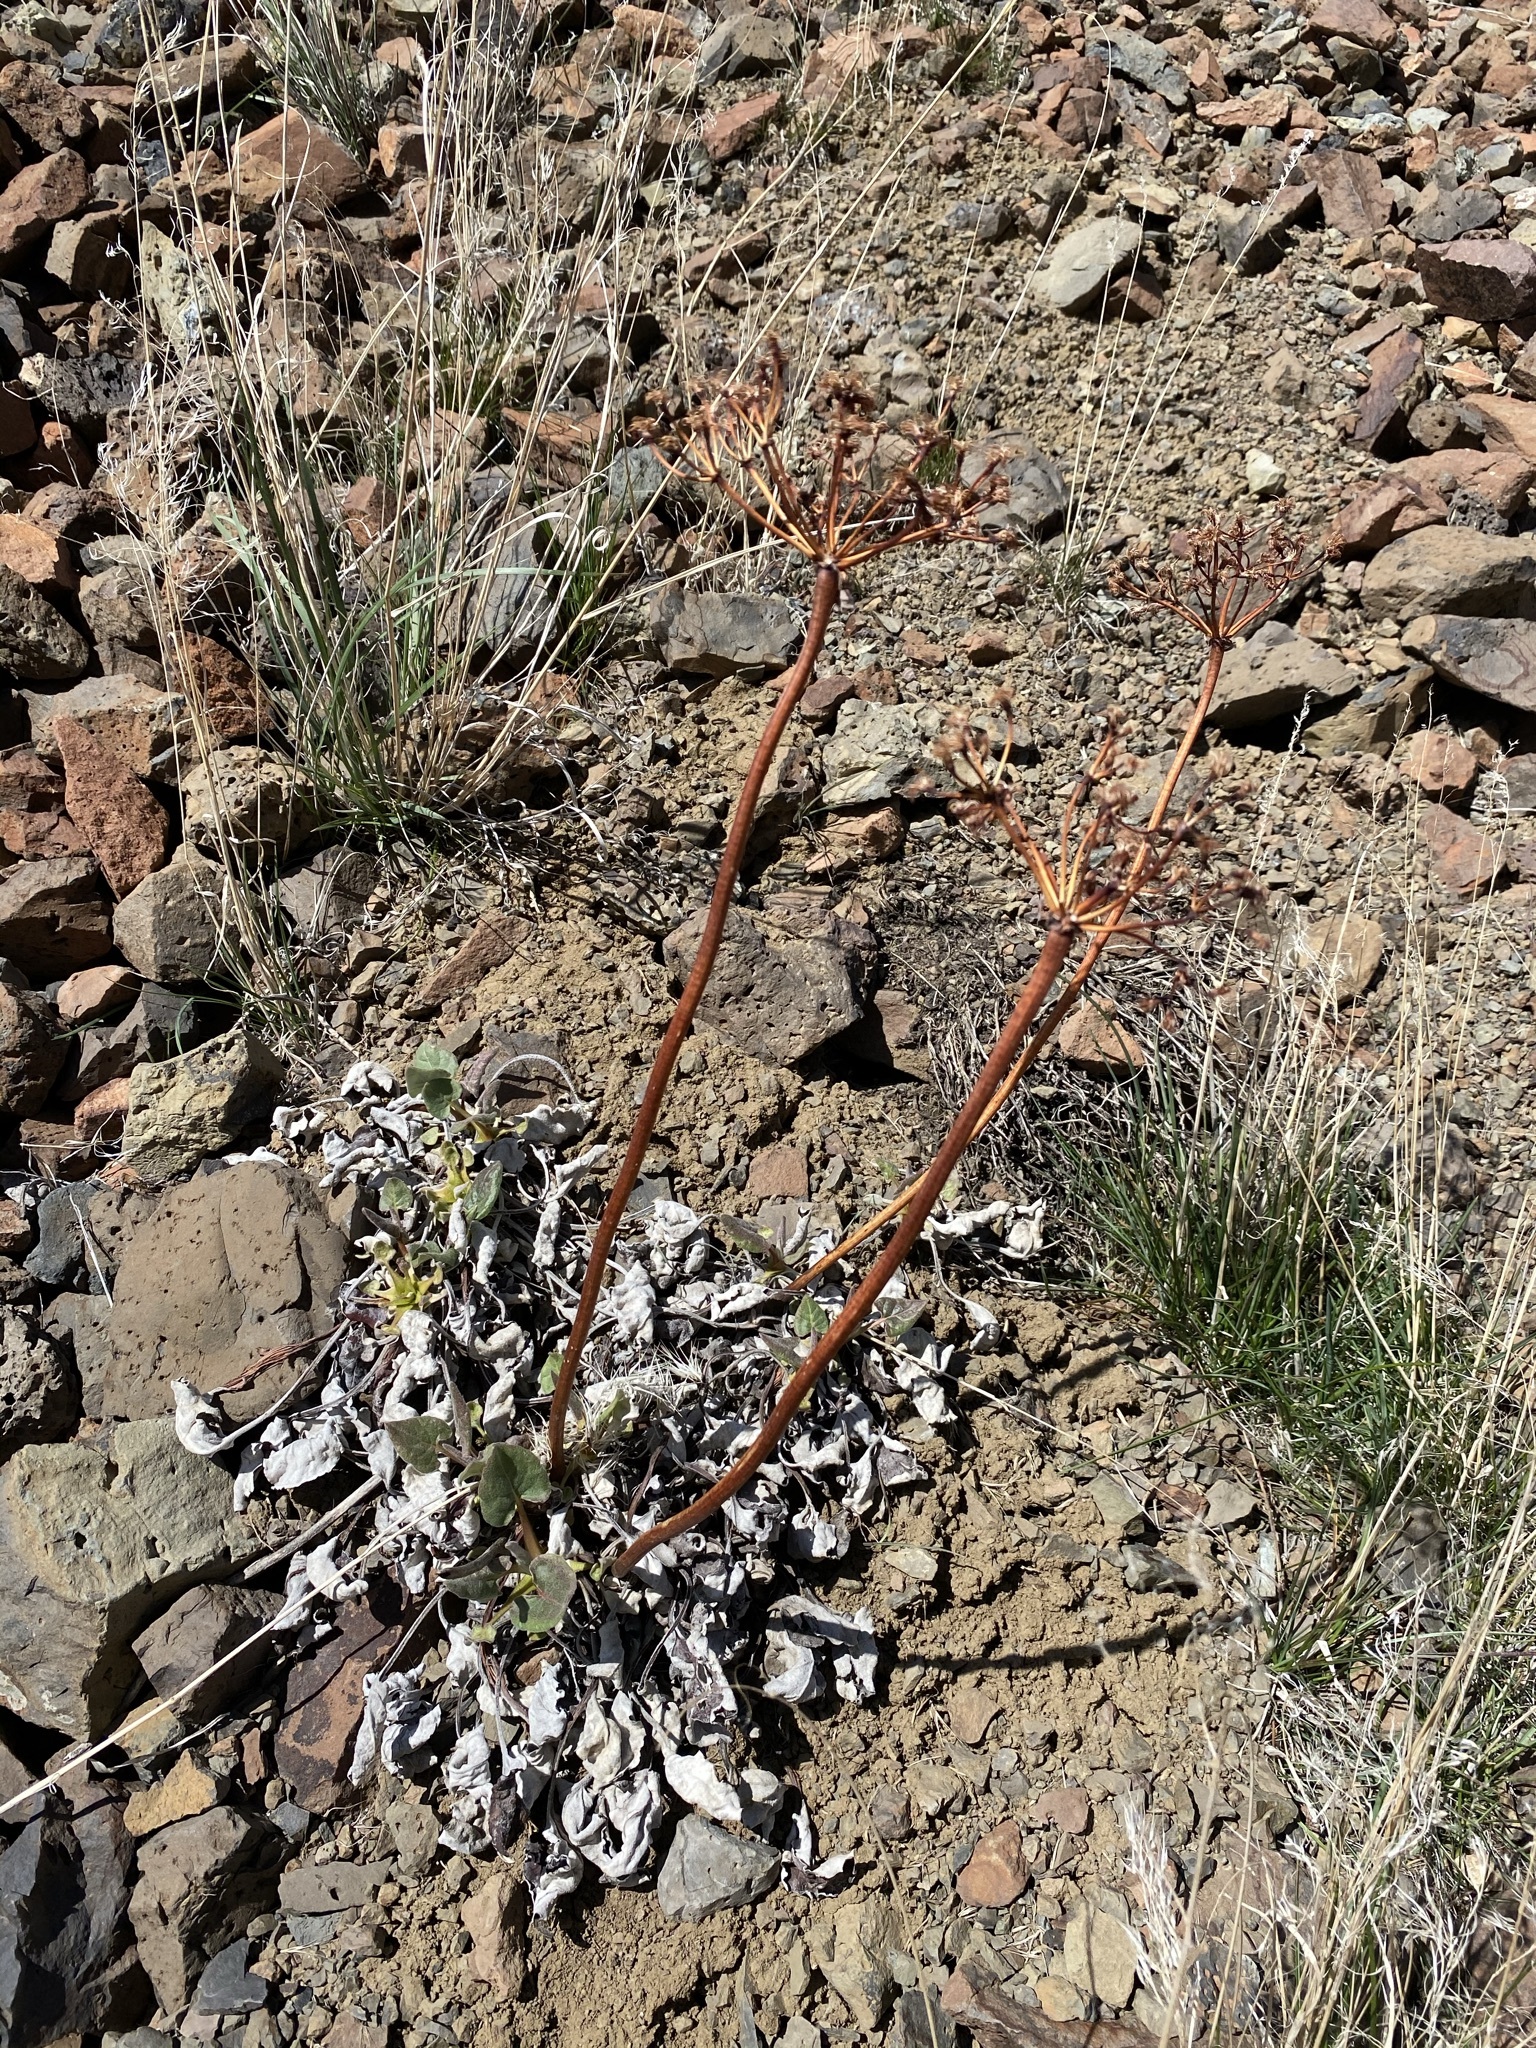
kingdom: Plantae
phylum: Tracheophyta
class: Magnoliopsida
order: Caryophyllales
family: Polygonaceae
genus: Eriogonum
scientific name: Eriogonum compositum
